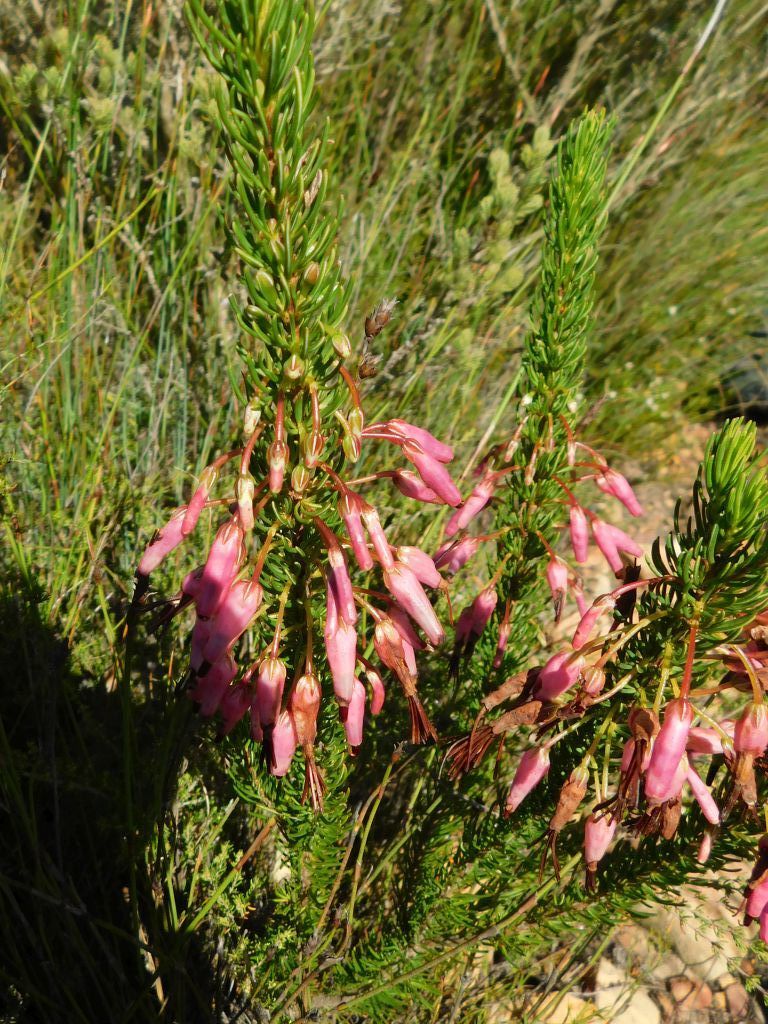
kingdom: Plantae
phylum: Tracheophyta
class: Magnoliopsida
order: Ericales
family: Ericaceae
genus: Erica
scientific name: Erica plukenetii
